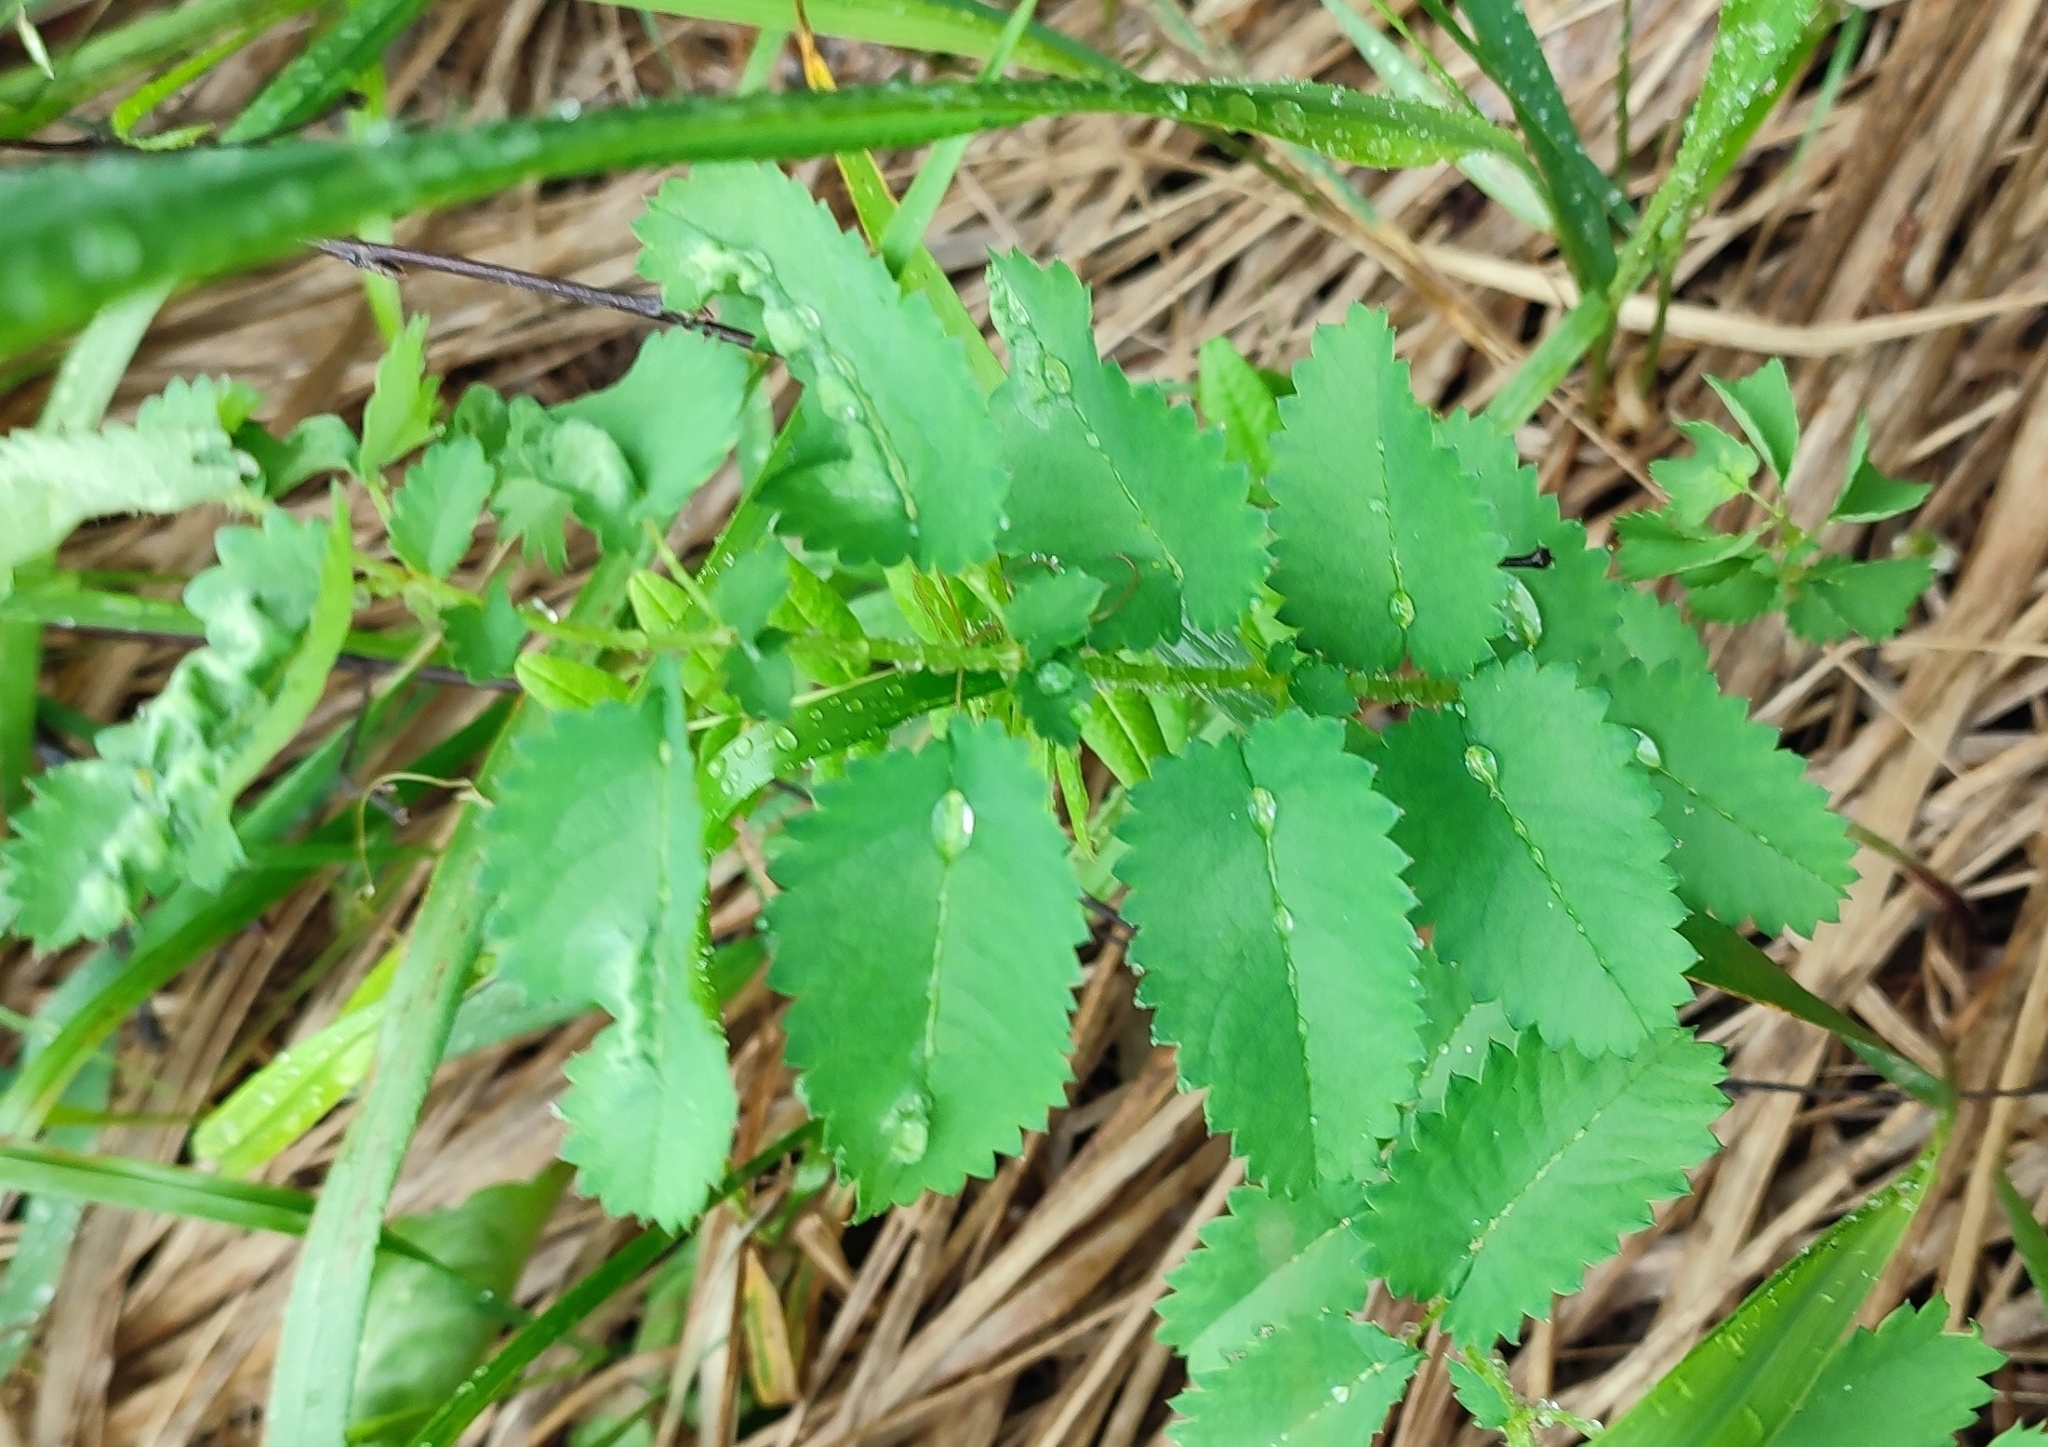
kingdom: Plantae
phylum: Tracheophyta
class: Magnoliopsida
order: Rosales
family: Rosaceae
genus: Sanguisorba
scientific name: Sanguisorba officinalis
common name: Great burnet
